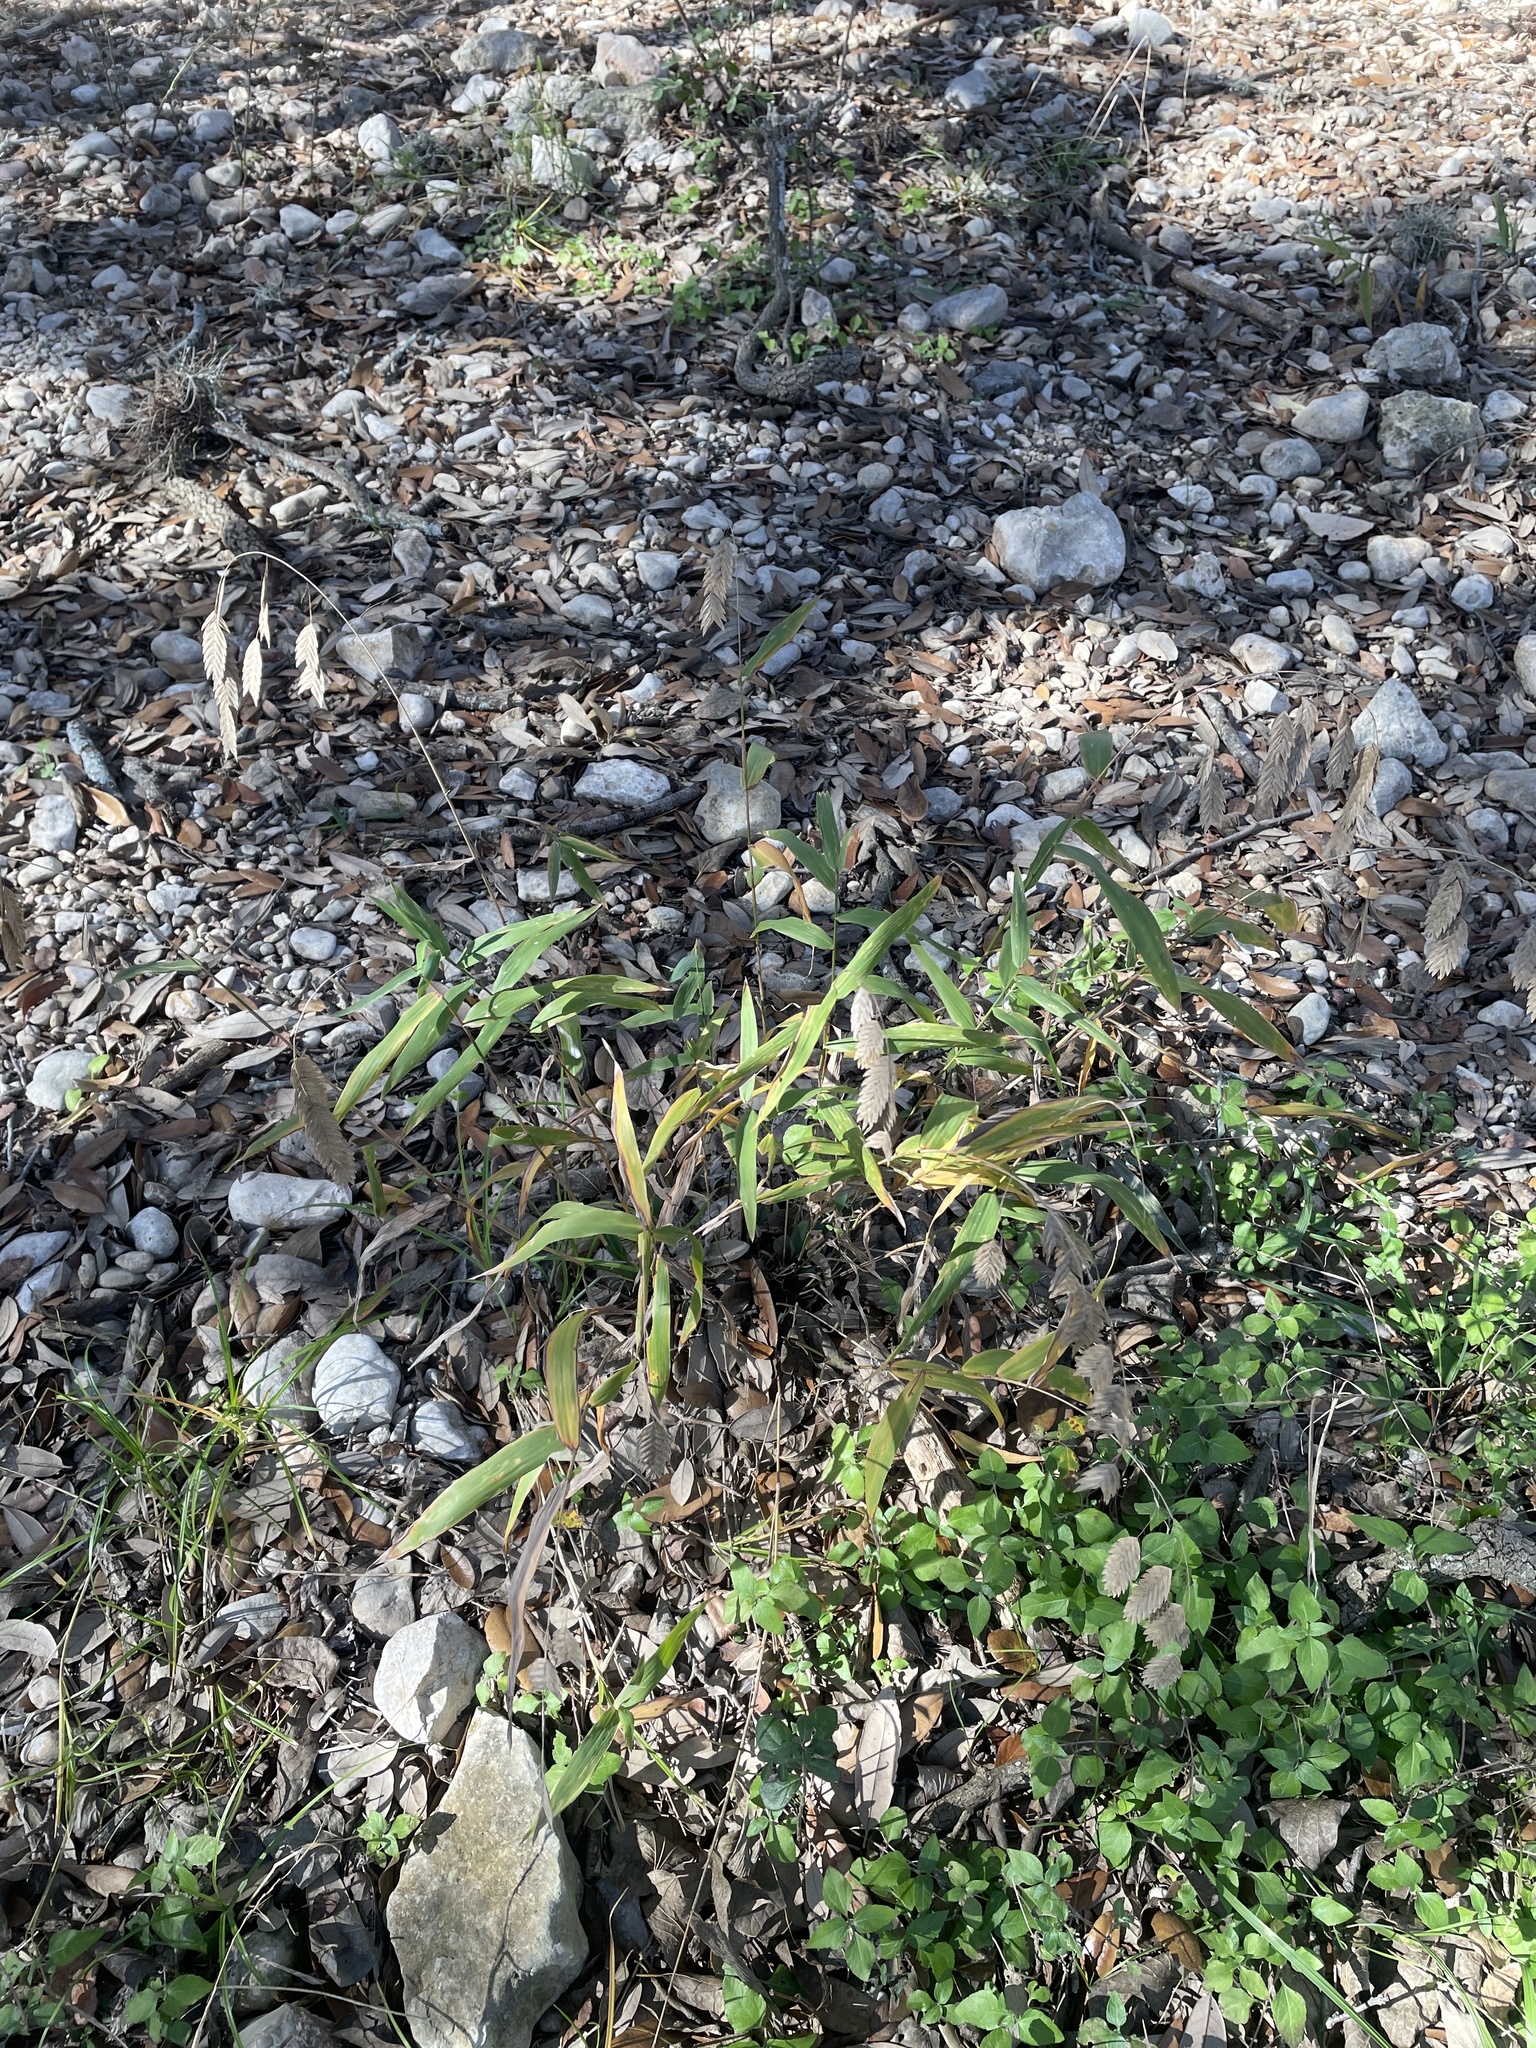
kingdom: Plantae
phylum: Tracheophyta
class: Liliopsida
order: Poales
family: Poaceae
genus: Chasmanthium
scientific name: Chasmanthium latifolium
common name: Broad-leaved chasmanthium
